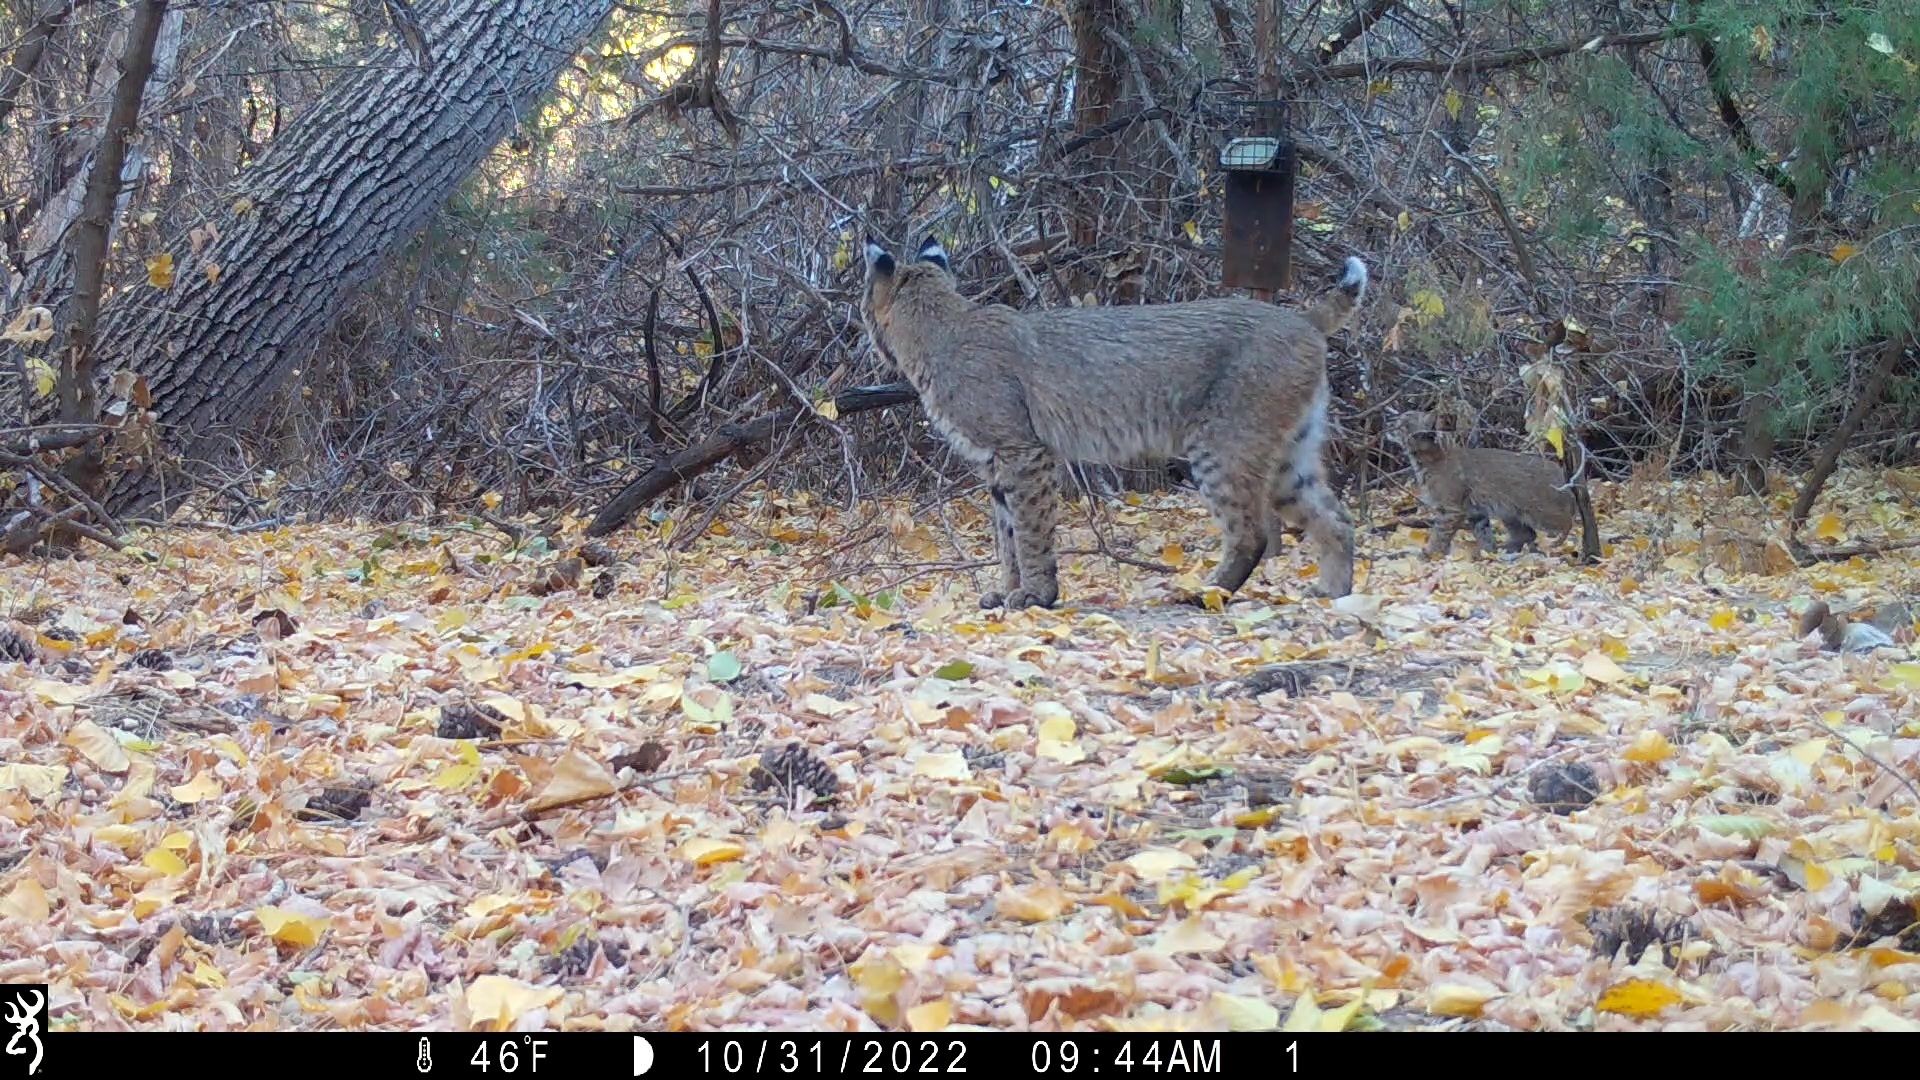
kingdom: Animalia
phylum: Chordata
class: Mammalia
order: Carnivora
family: Felidae
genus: Lynx
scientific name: Lynx rufus
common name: Bobcat
